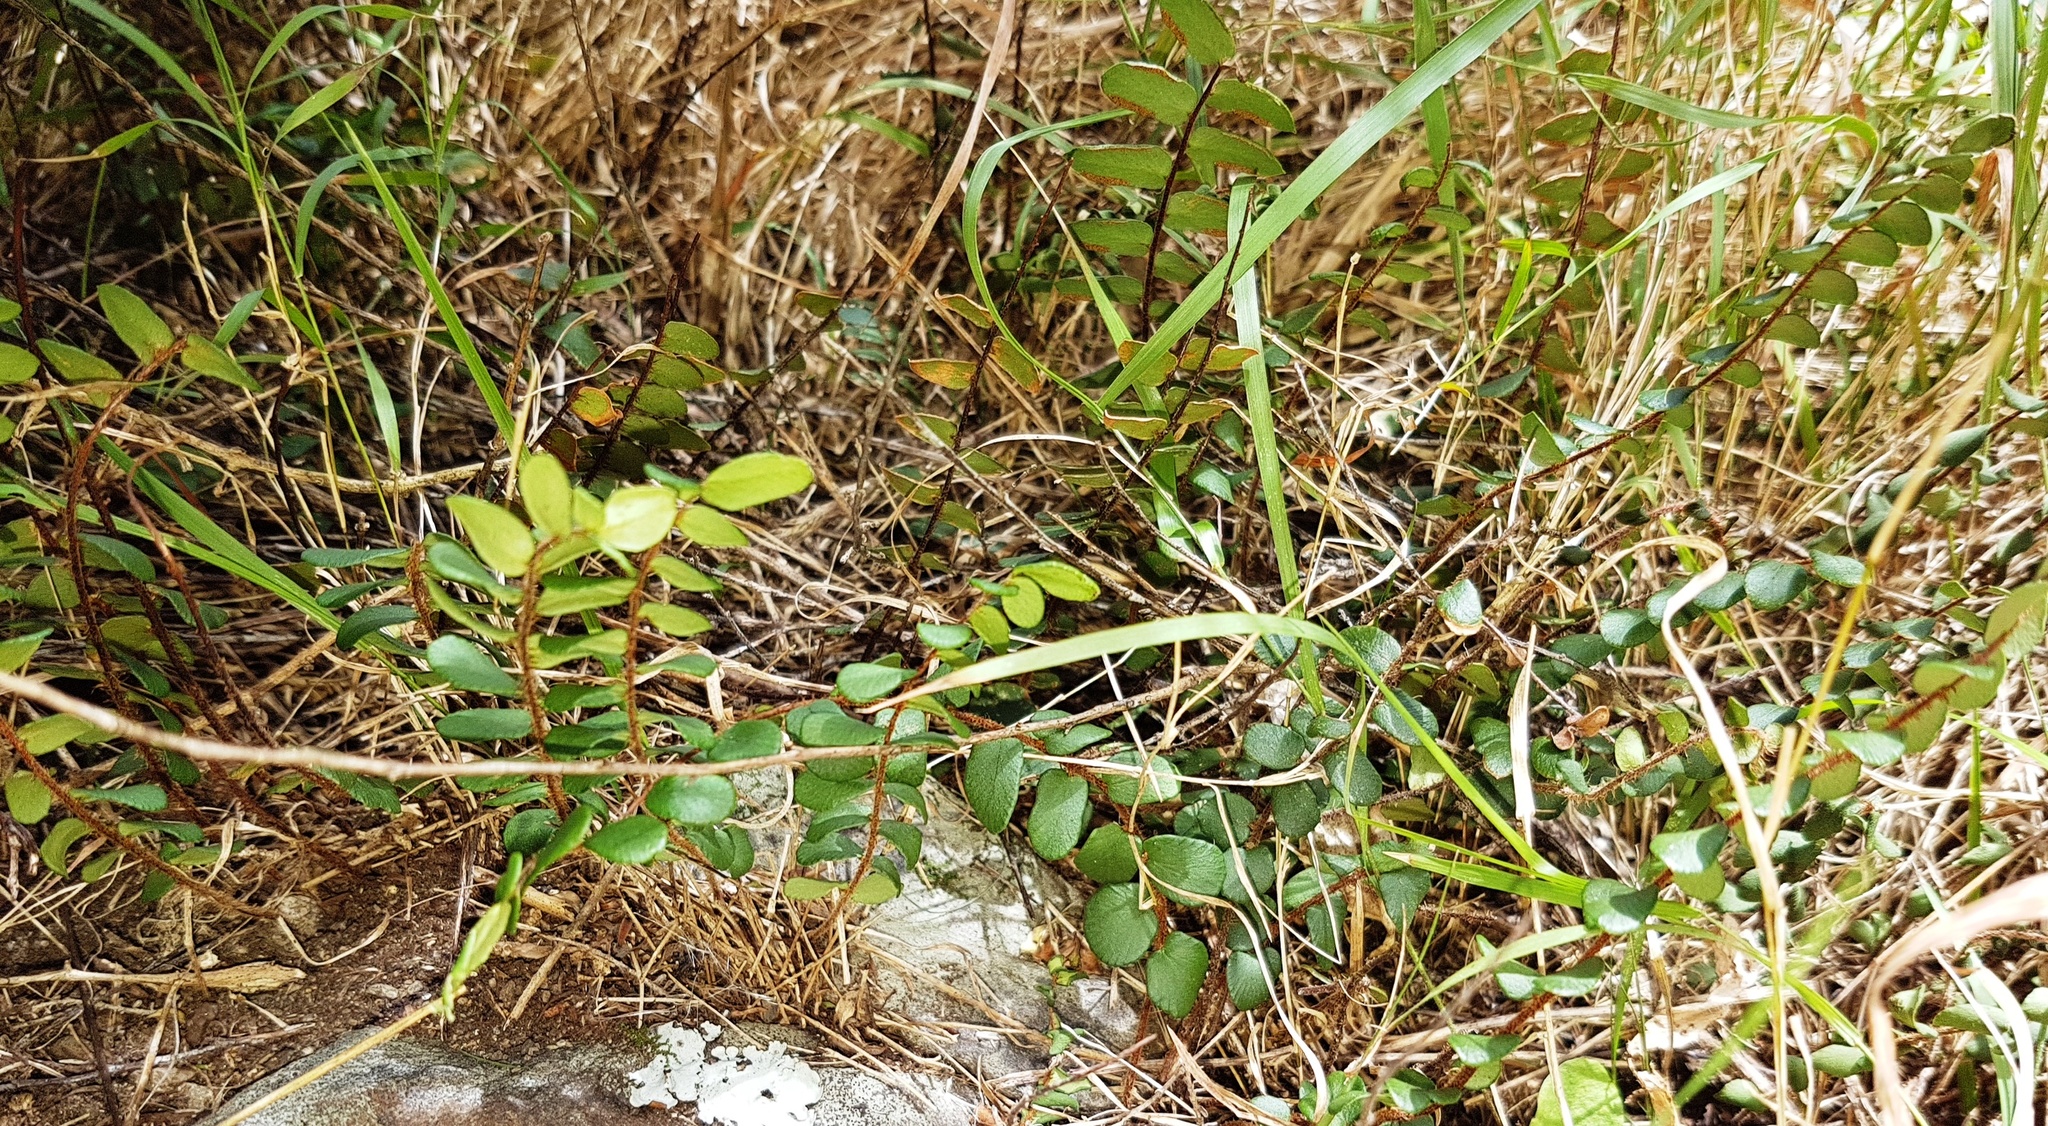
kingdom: Plantae
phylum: Tracheophyta
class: Polypodiopsida
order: Polypodiales
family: Pteridaceae
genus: Pellaea
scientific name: Pellaea rotundifolia
